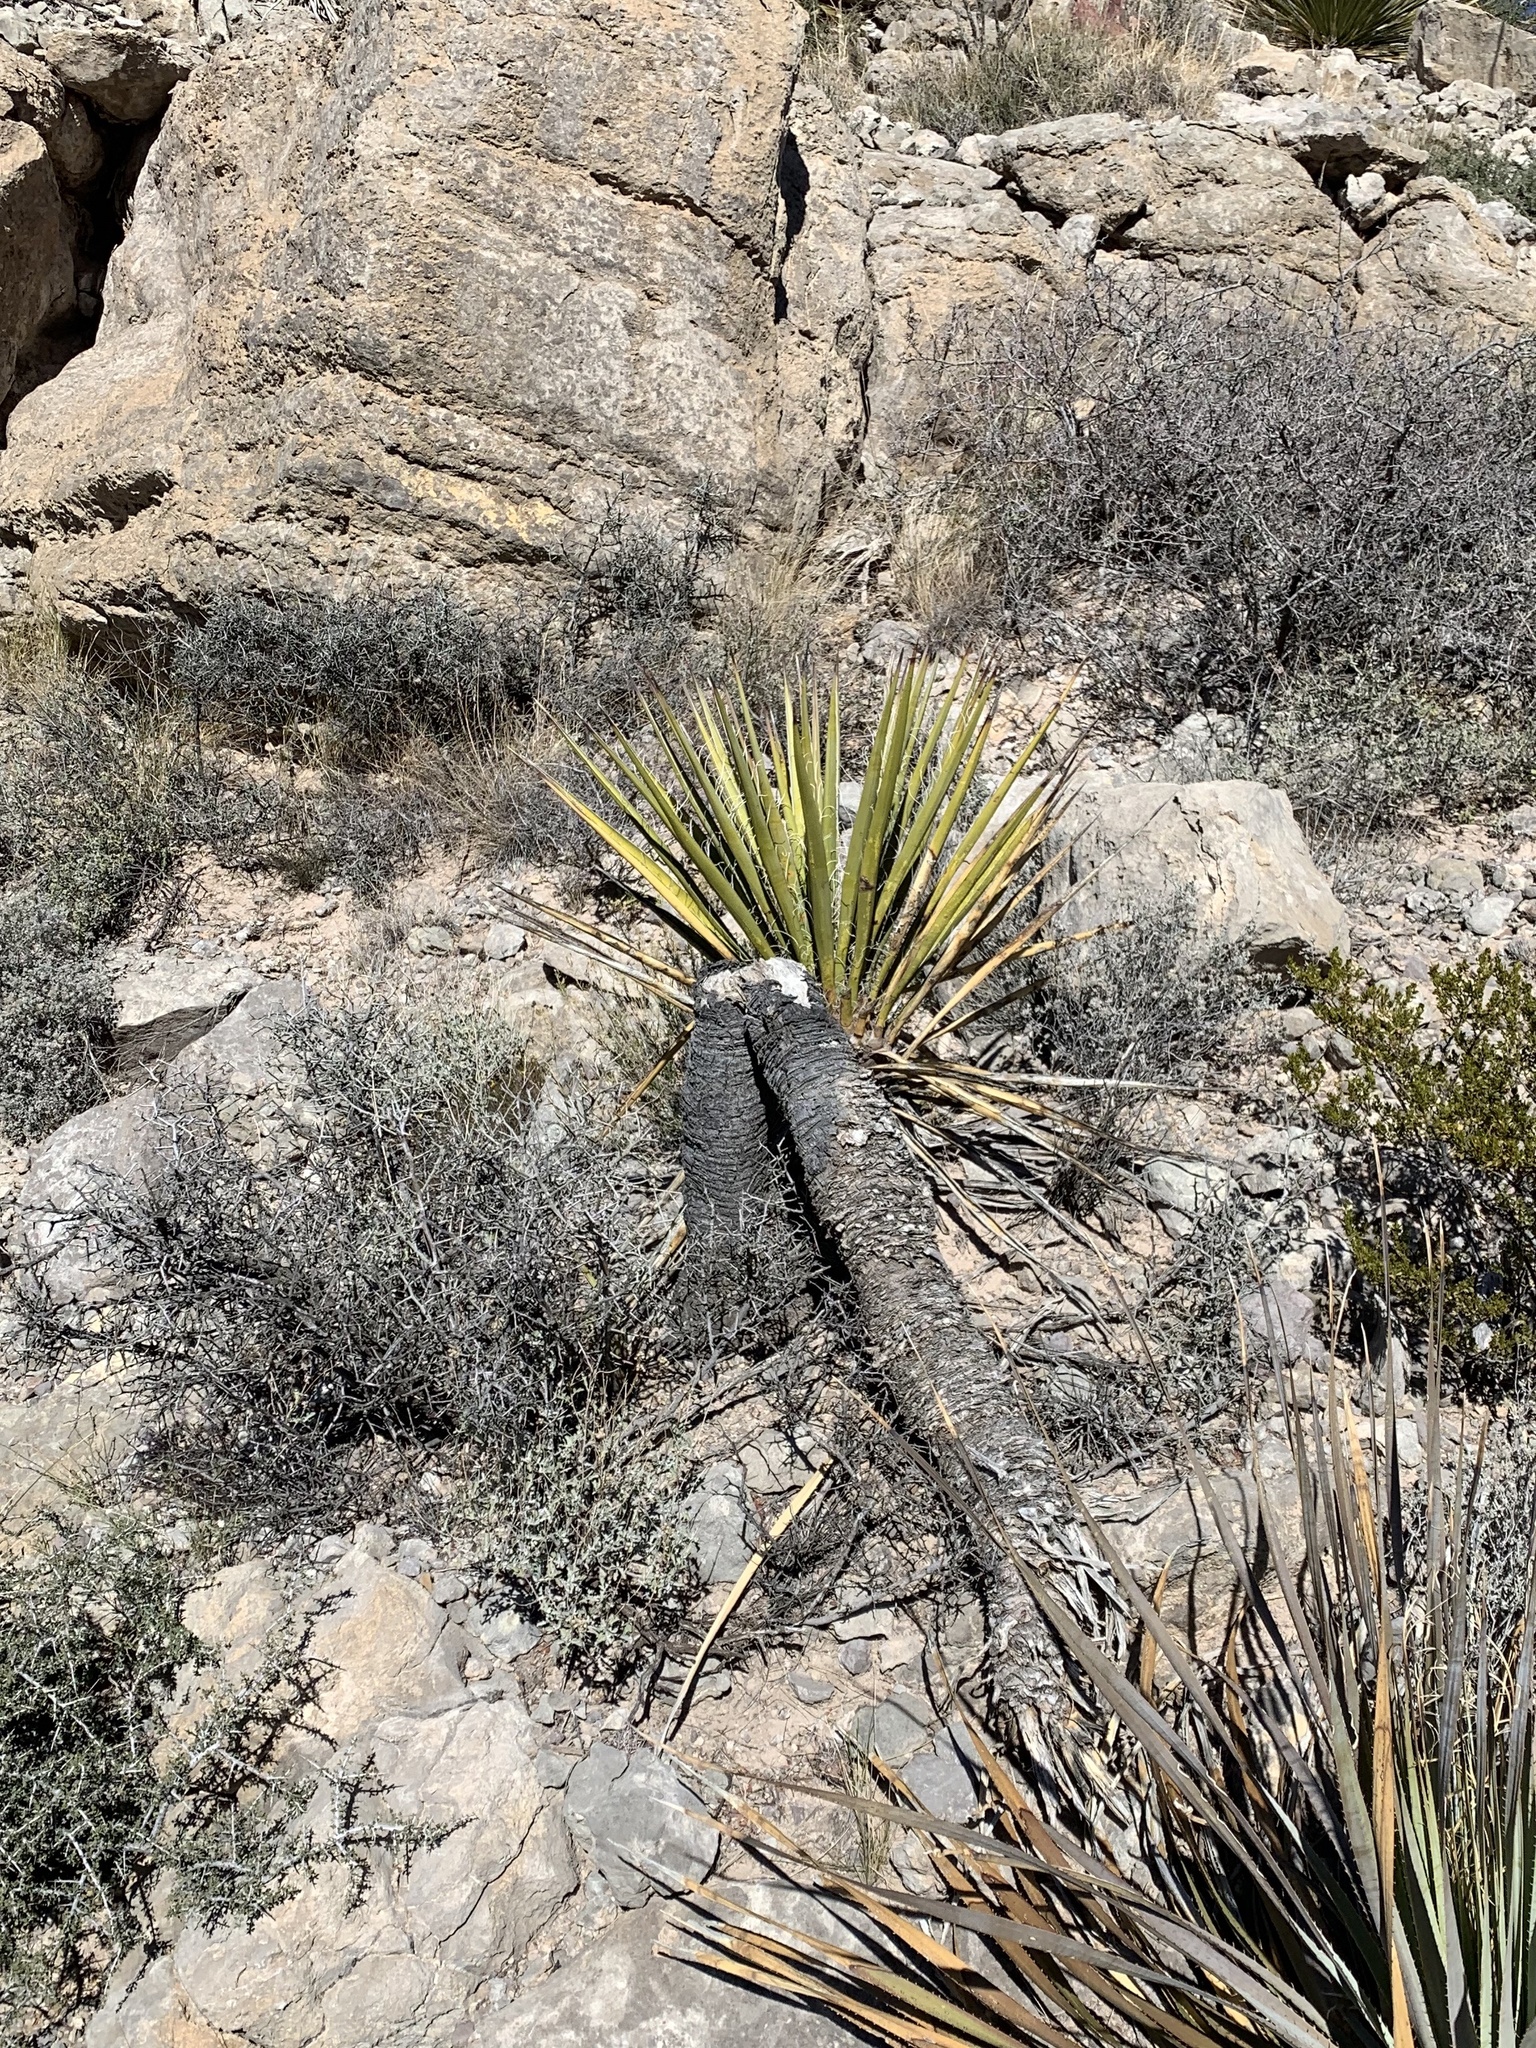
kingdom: Plantae
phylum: Tracheophyta
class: Liliopsida
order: Asparagales
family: Asparagaceae
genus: Yucca
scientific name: Yucca treculiana
